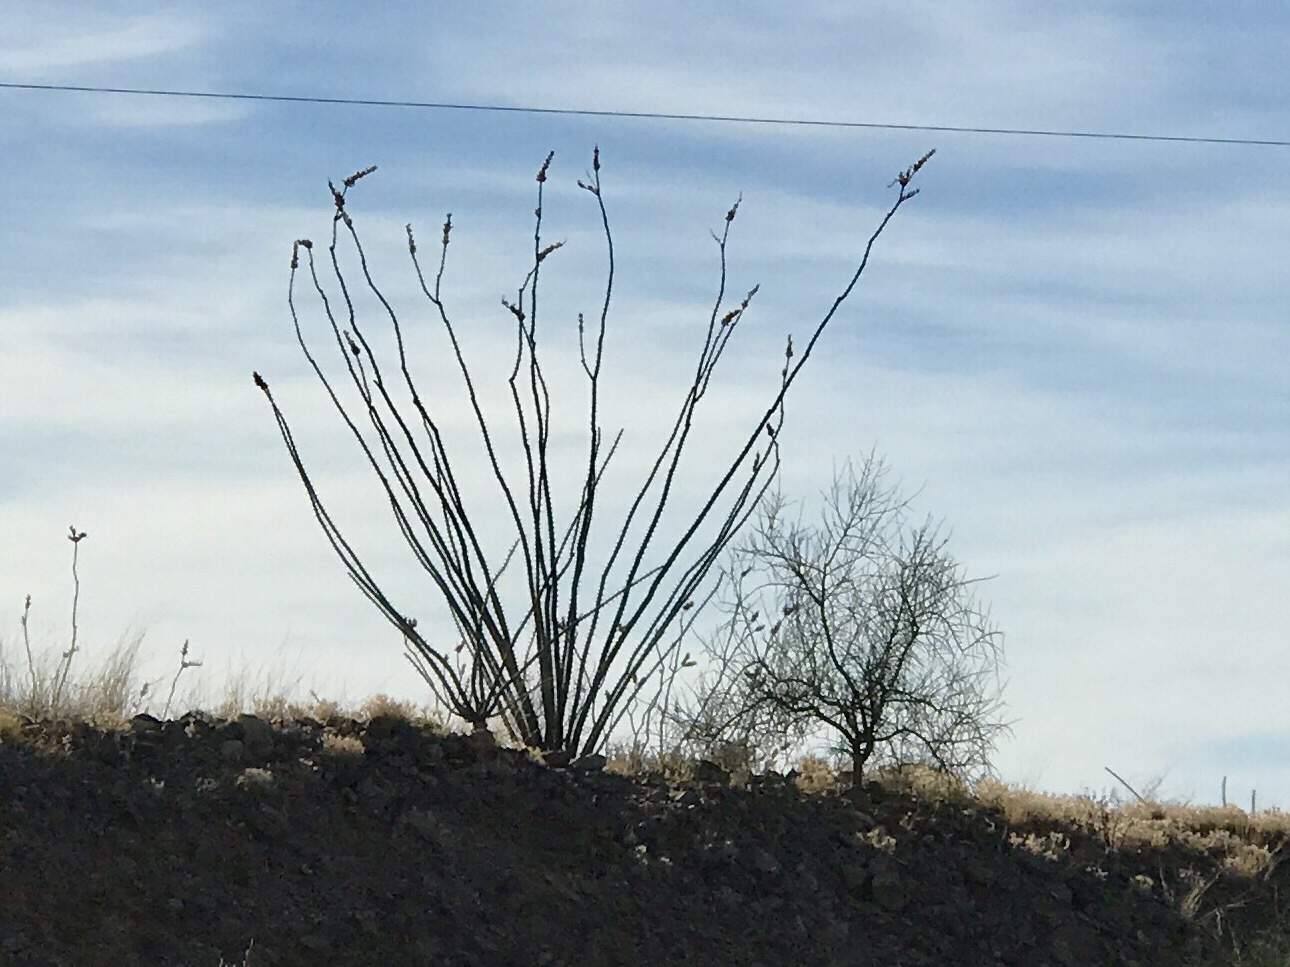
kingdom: Plantae
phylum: Tracheophyta
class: Magnoliopsida
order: Ericales
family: Fouquieriaceae
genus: Fouquieria
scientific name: Fouquieria splendens
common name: Vine-cactus
